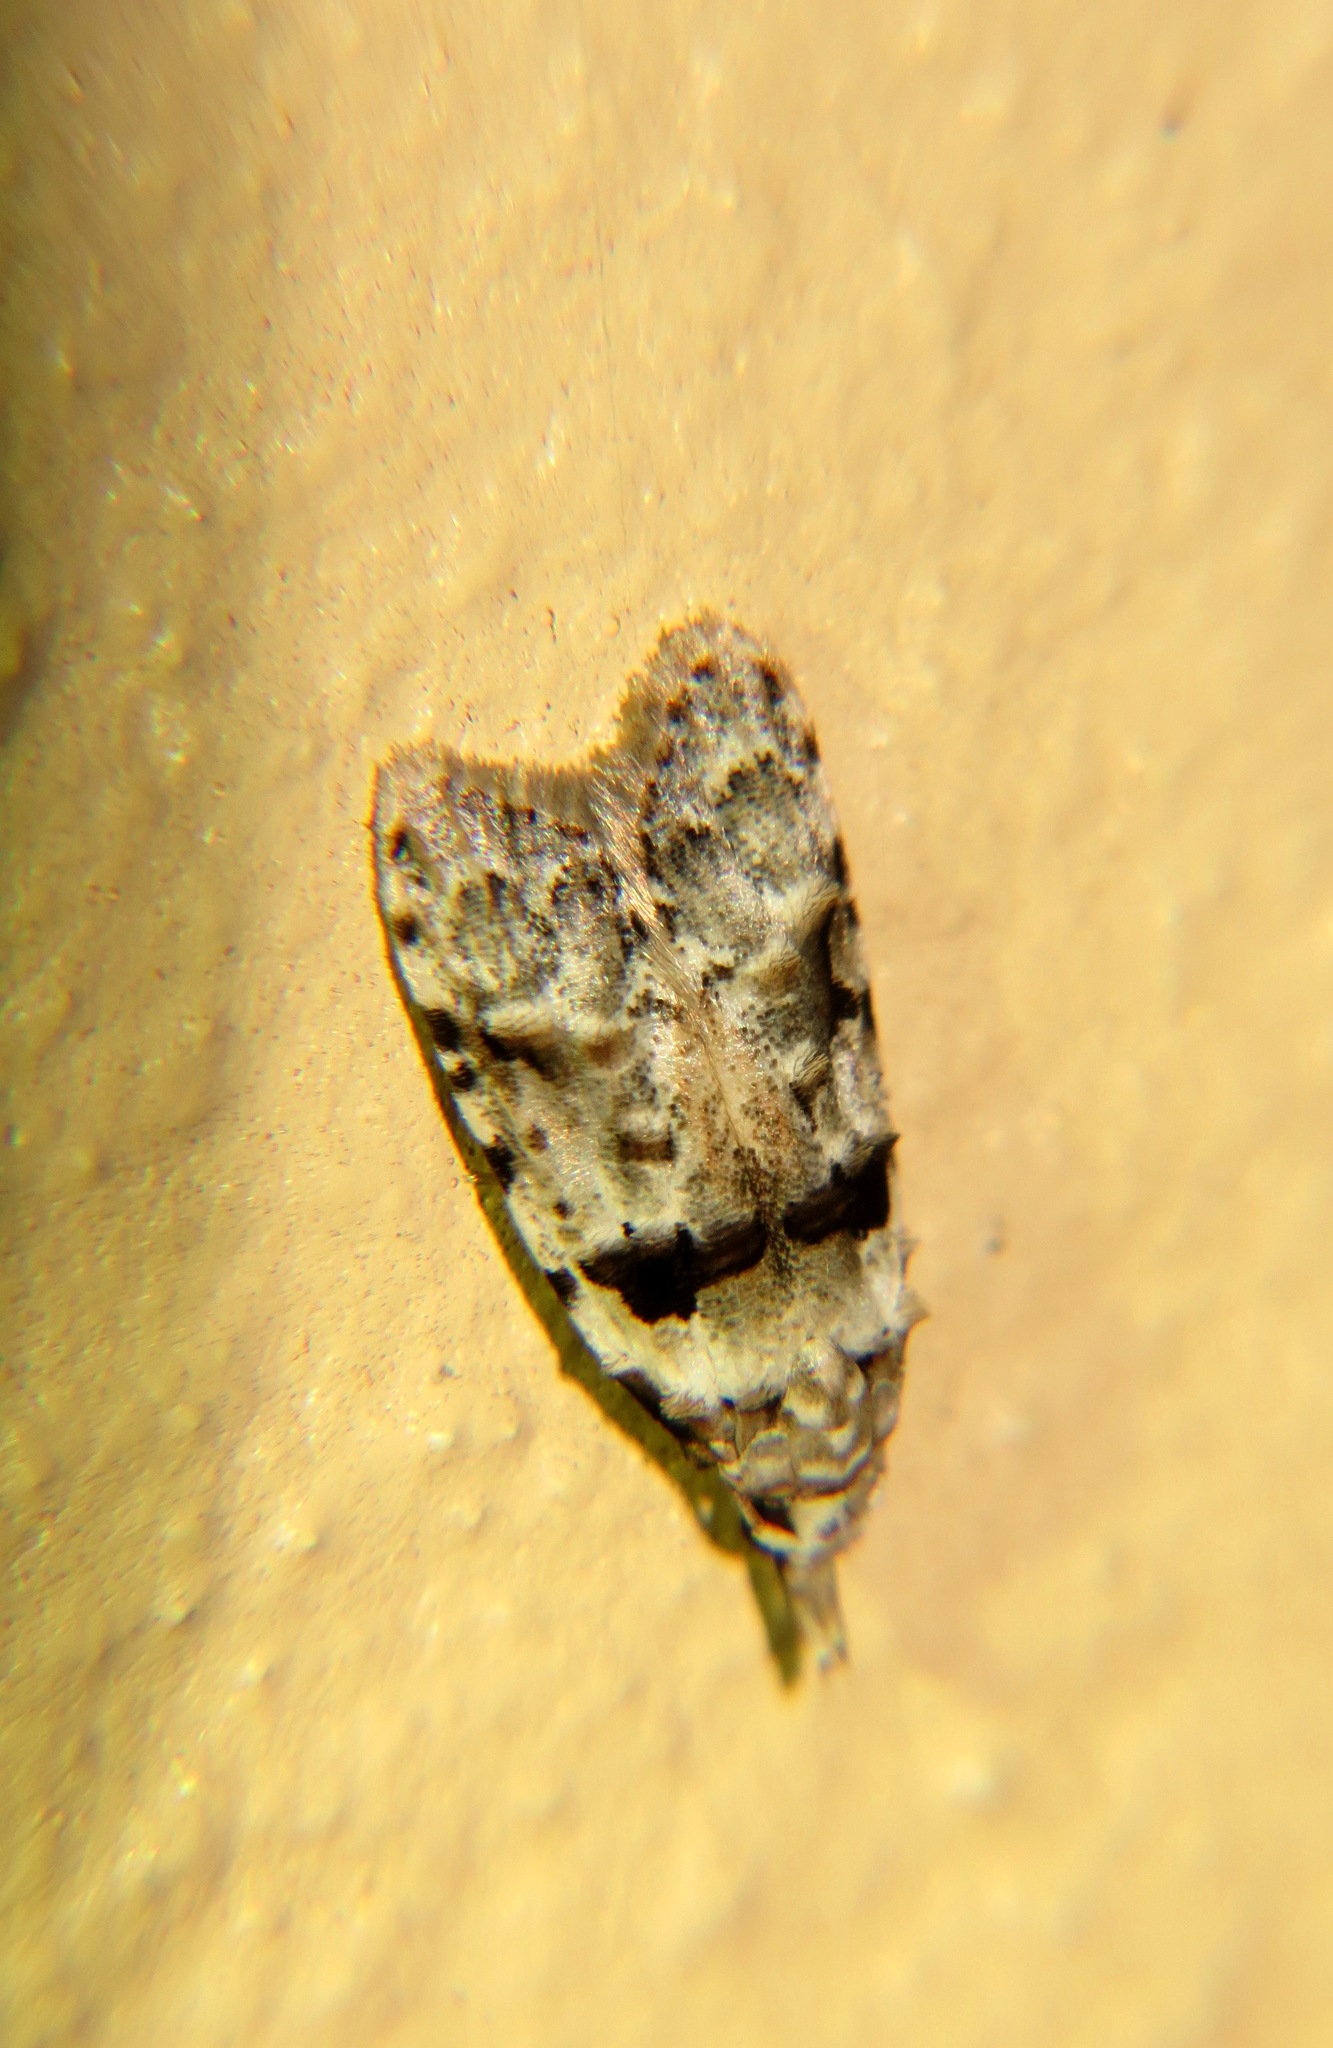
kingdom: Animalia
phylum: Arthropoda
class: Insecta
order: Lepidoptera
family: Carposinidae
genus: Coscinoptycha
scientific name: Coscinoptycha improbana
